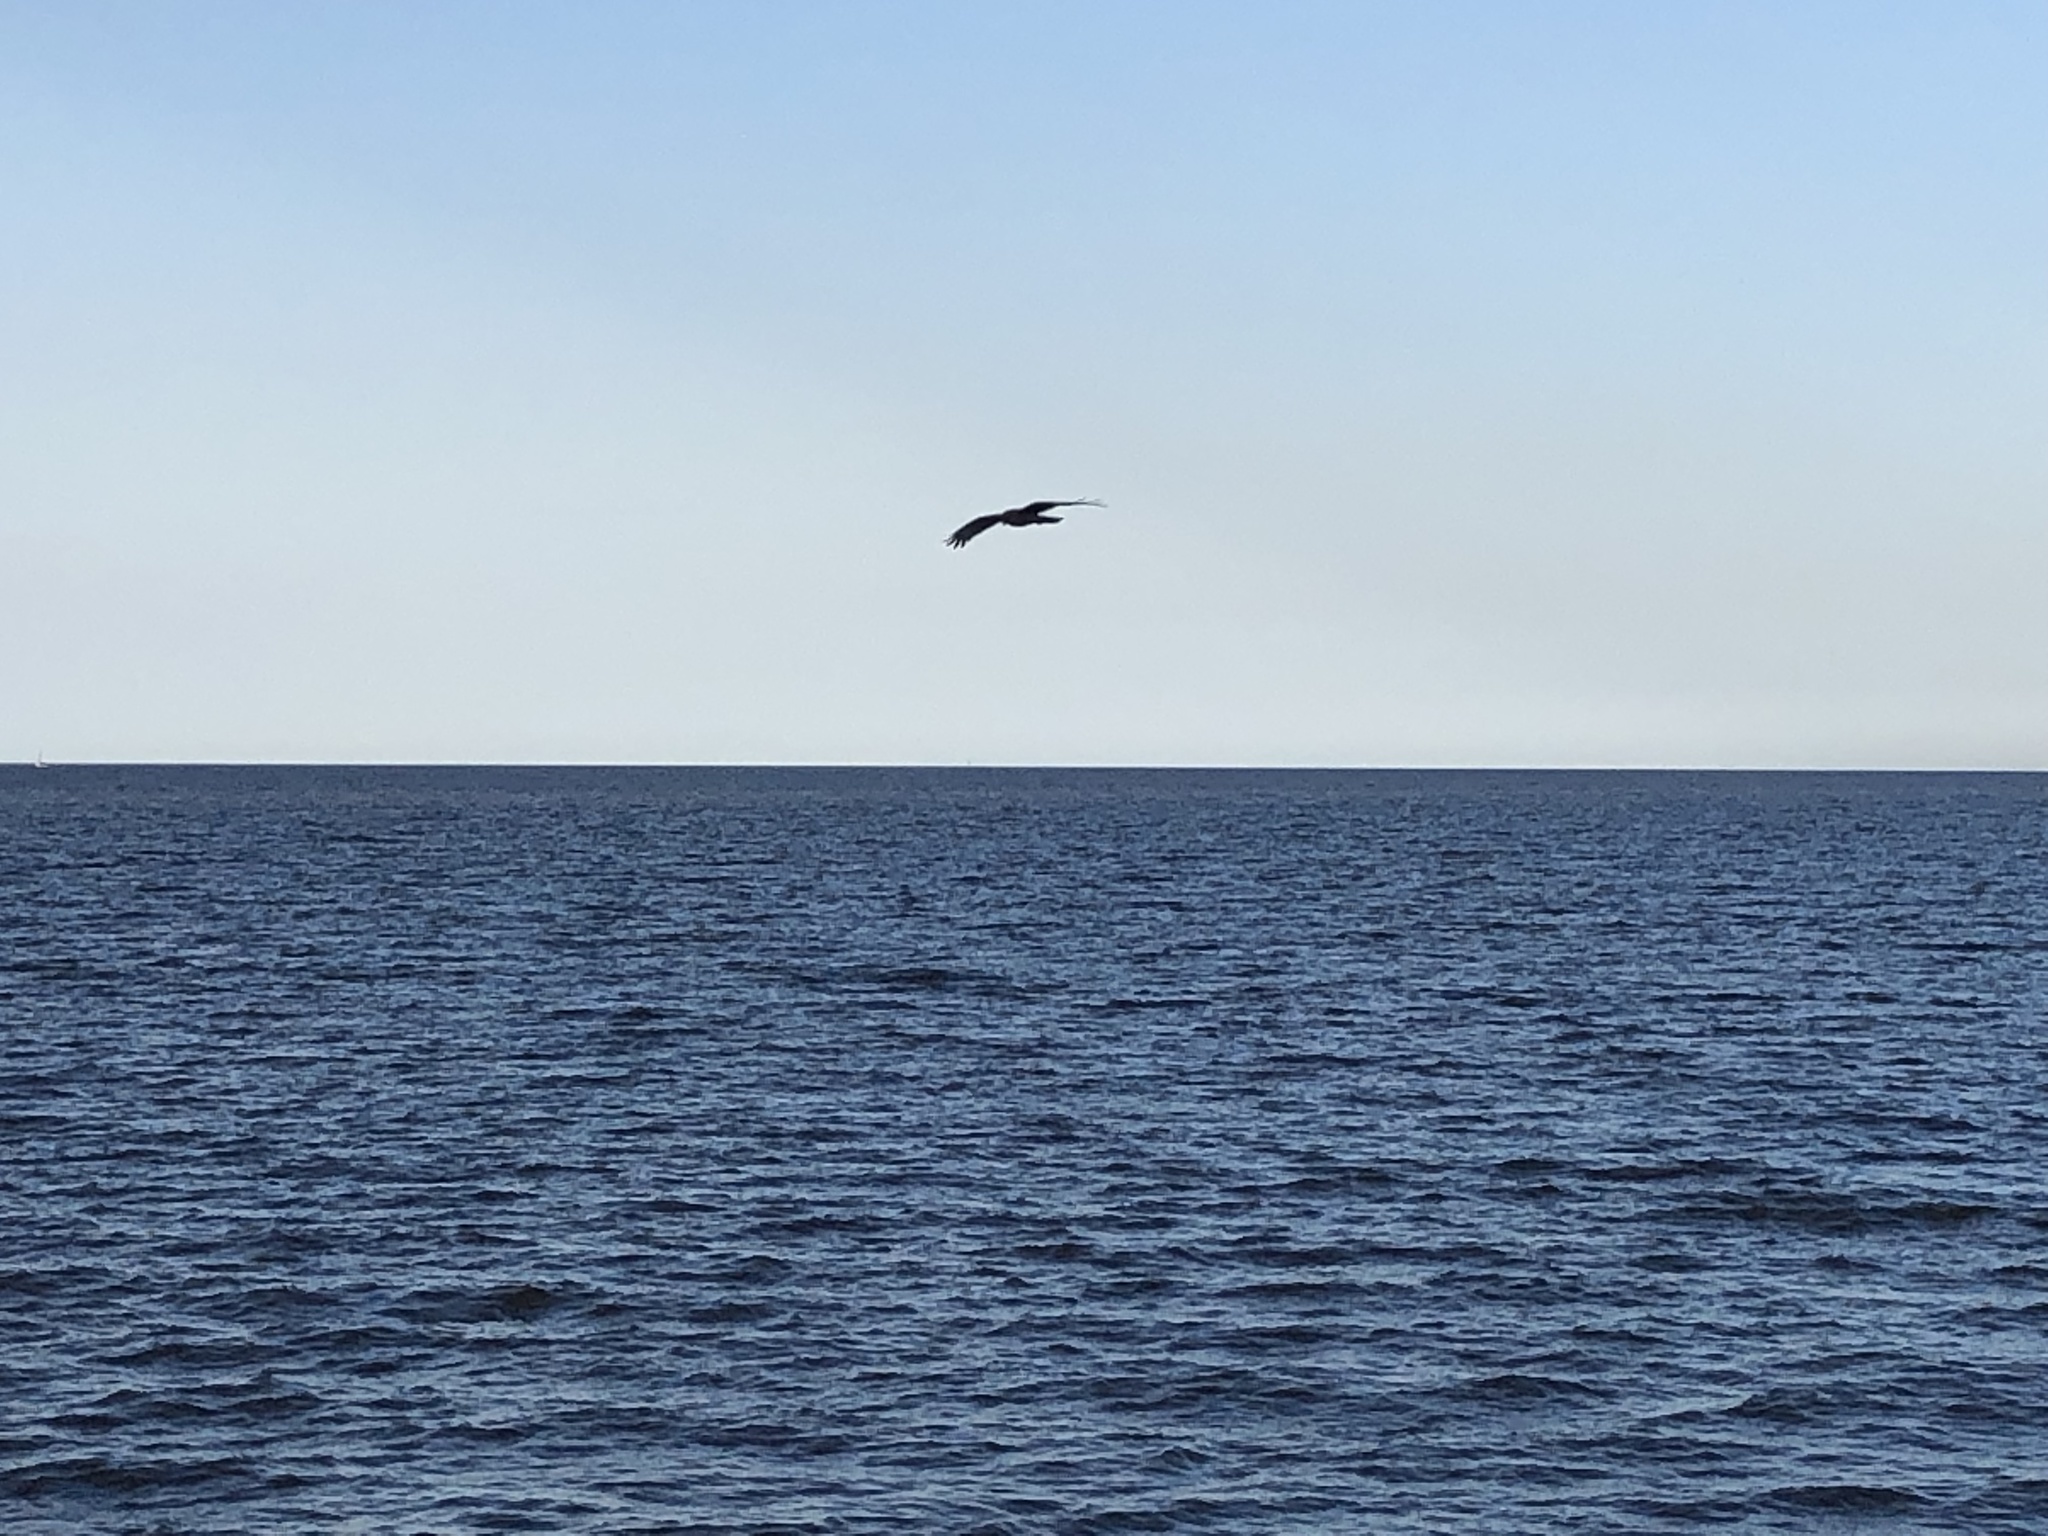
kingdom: Animalia
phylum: Chordata
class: Aves
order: Falconiformes
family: Falconidae
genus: Daptrius
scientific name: Daptrius
